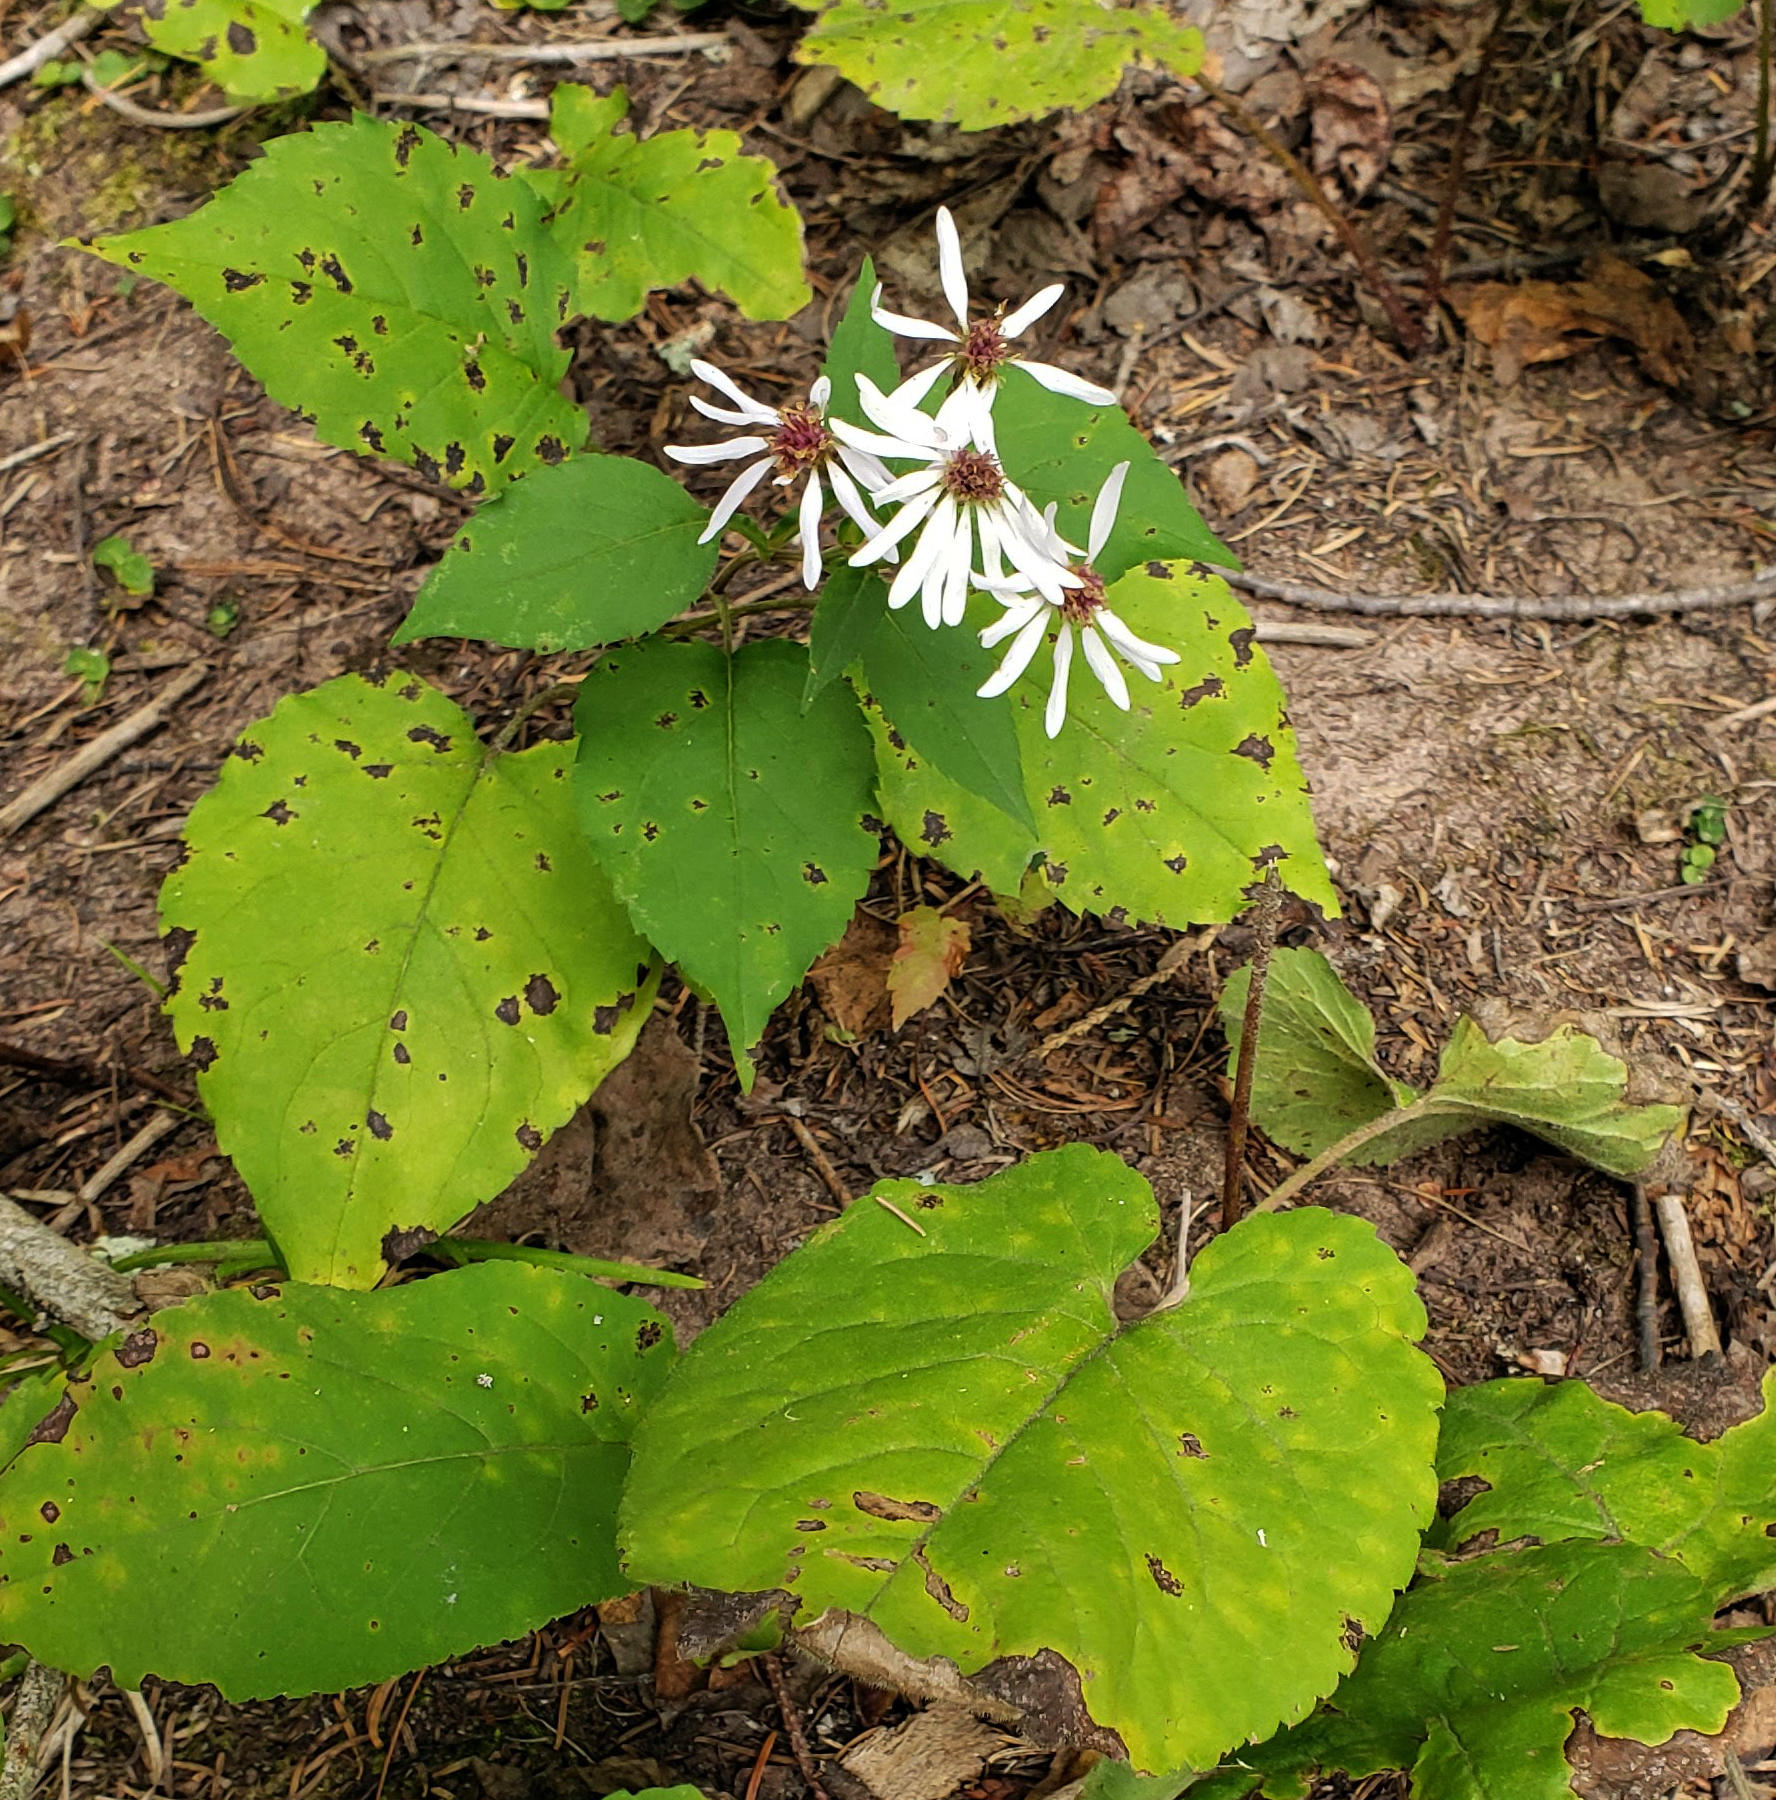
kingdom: Plantae
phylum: Tracheophyta
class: Magnoliopsida
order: Asterales
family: Asteraceae
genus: Eurybia
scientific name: Eurybia macrophylla
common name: Big-leaved aster
